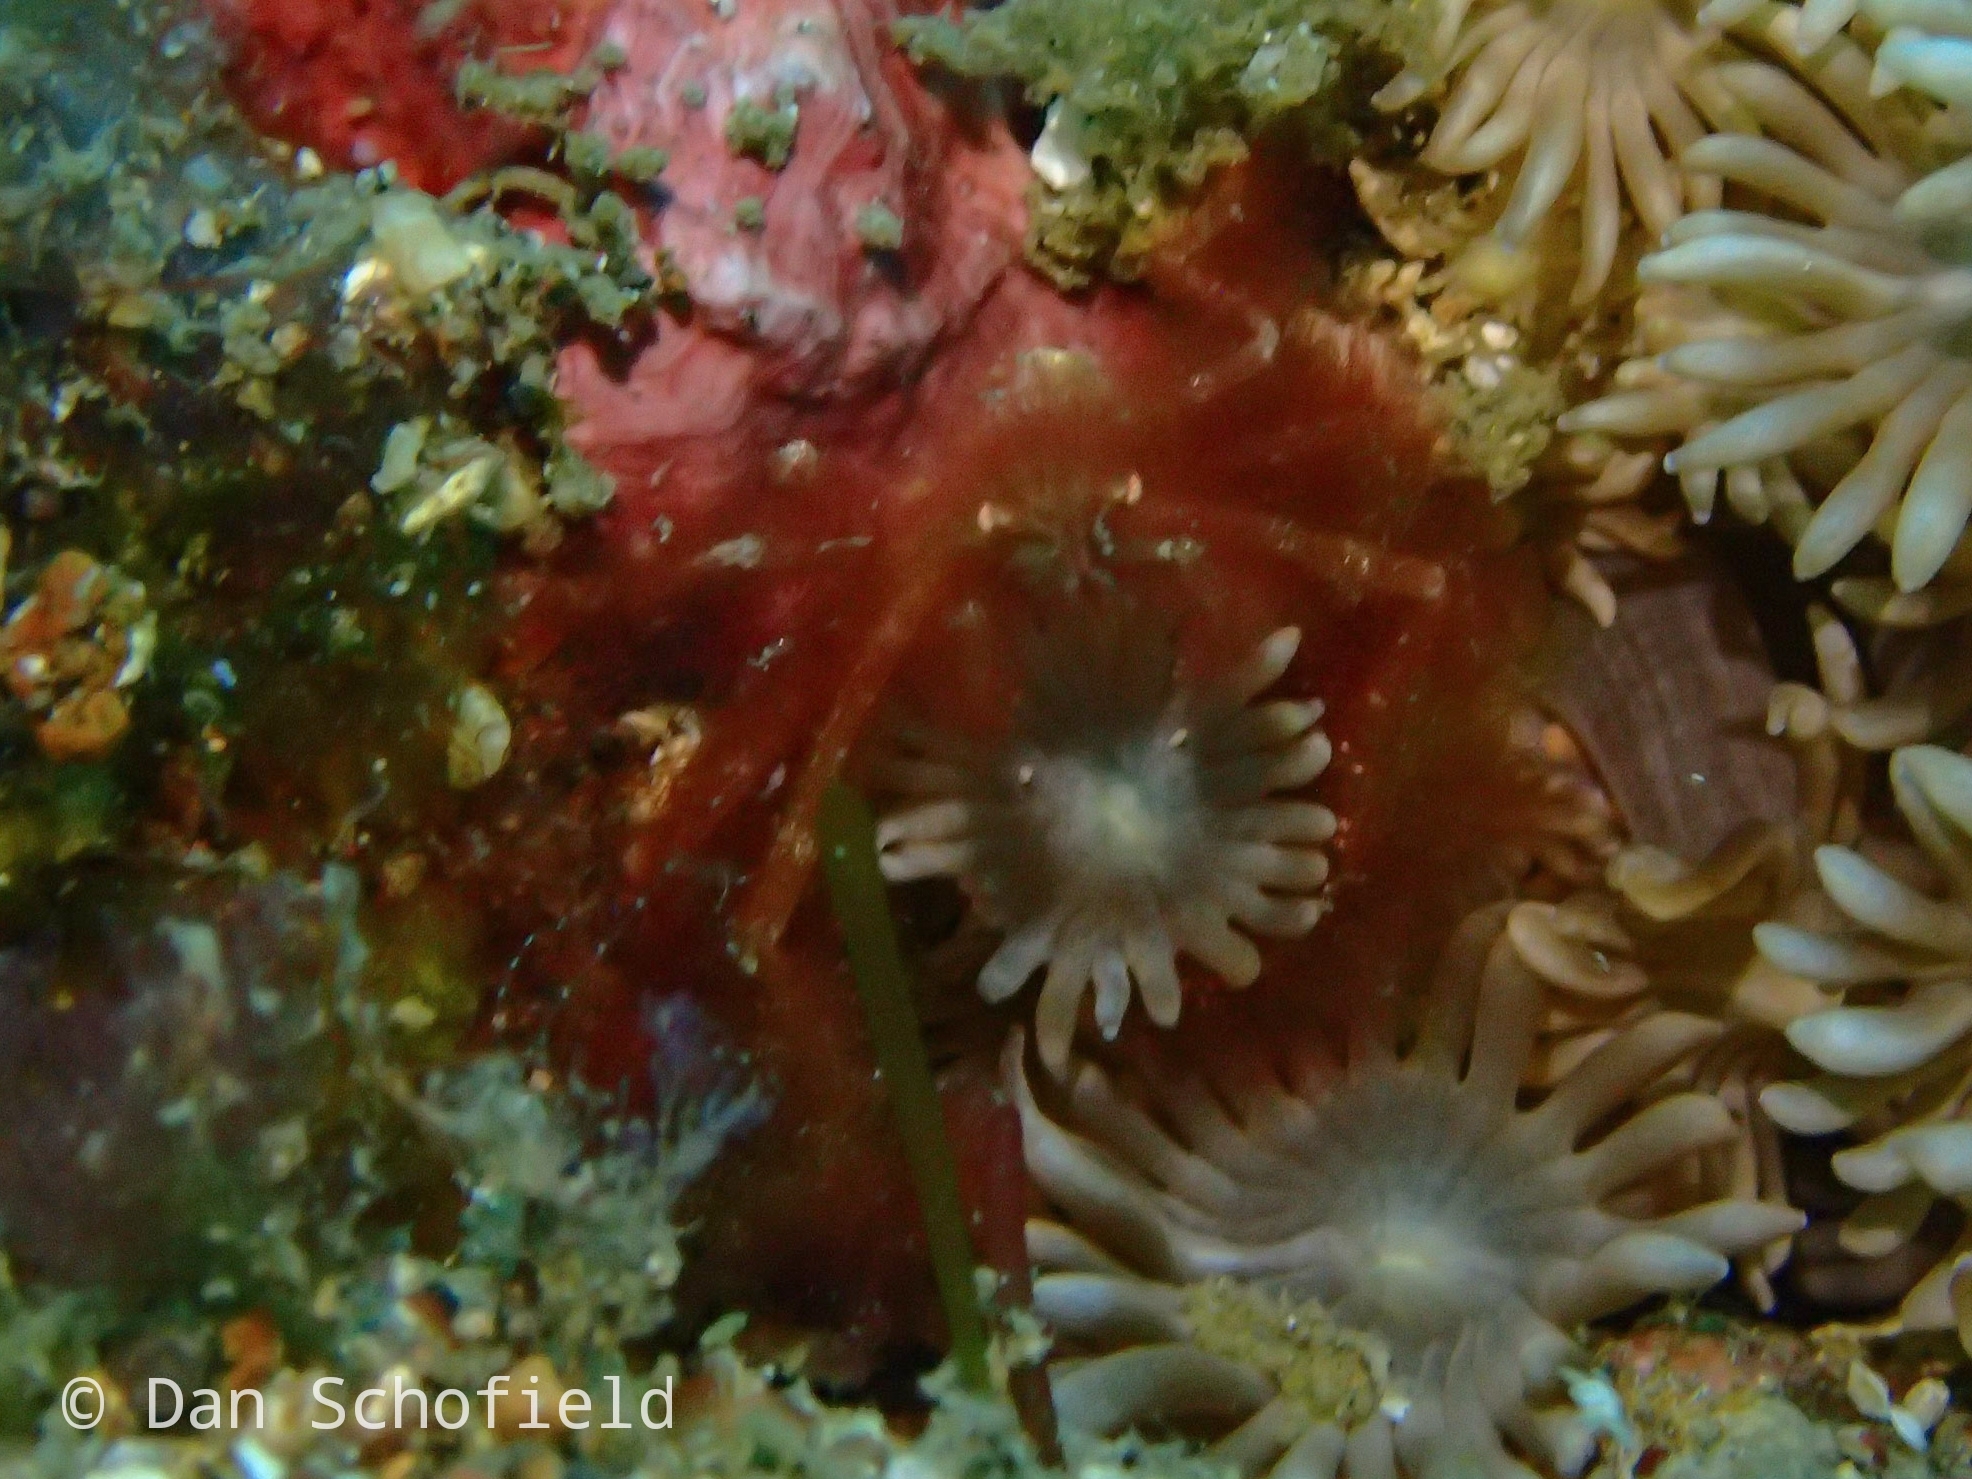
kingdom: Animalia
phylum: Arthropoda
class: Malacostraca
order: Decapoda
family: Inachidae
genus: Achaeus
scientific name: Achaeus japonicus
